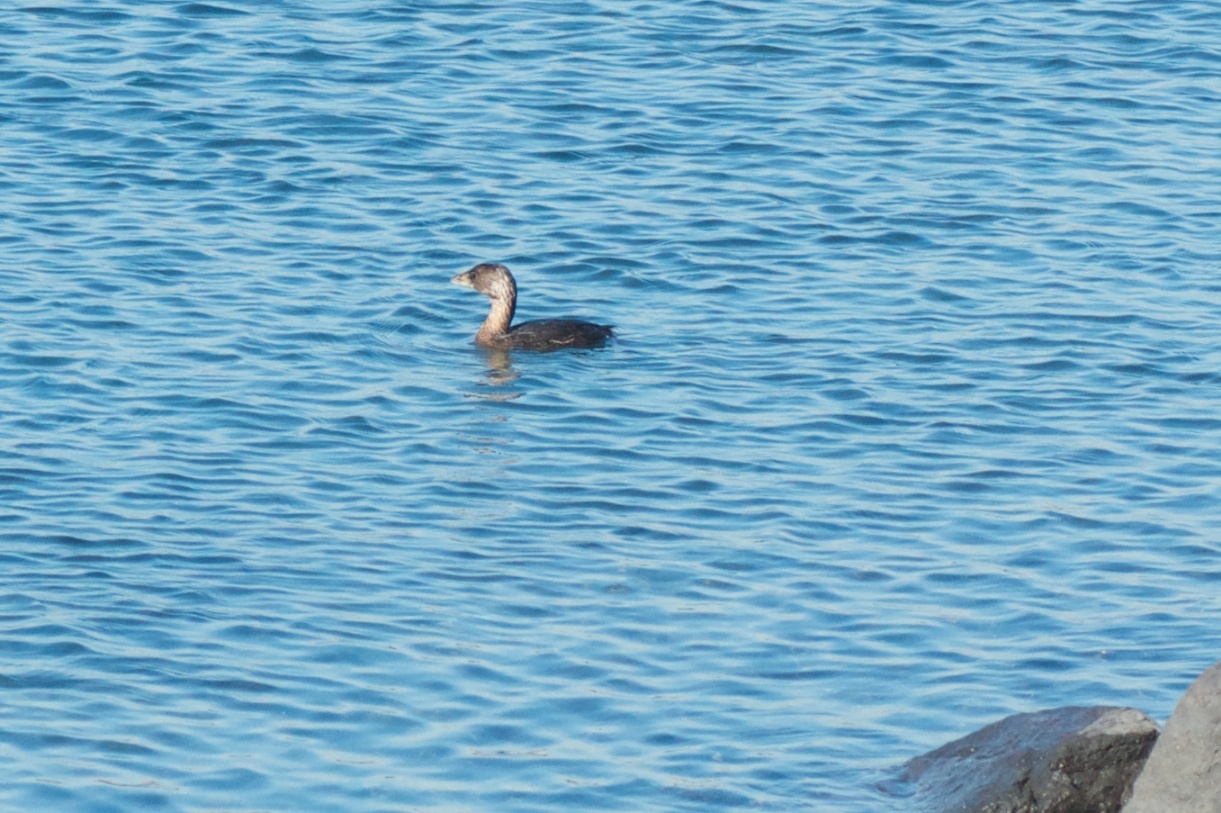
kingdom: Animalia
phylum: Chordata
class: Aves
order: Podicipediformes
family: Podicipedidae
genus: Podilymbus
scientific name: Podilymbus podiceps
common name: Pied-billed grebe
